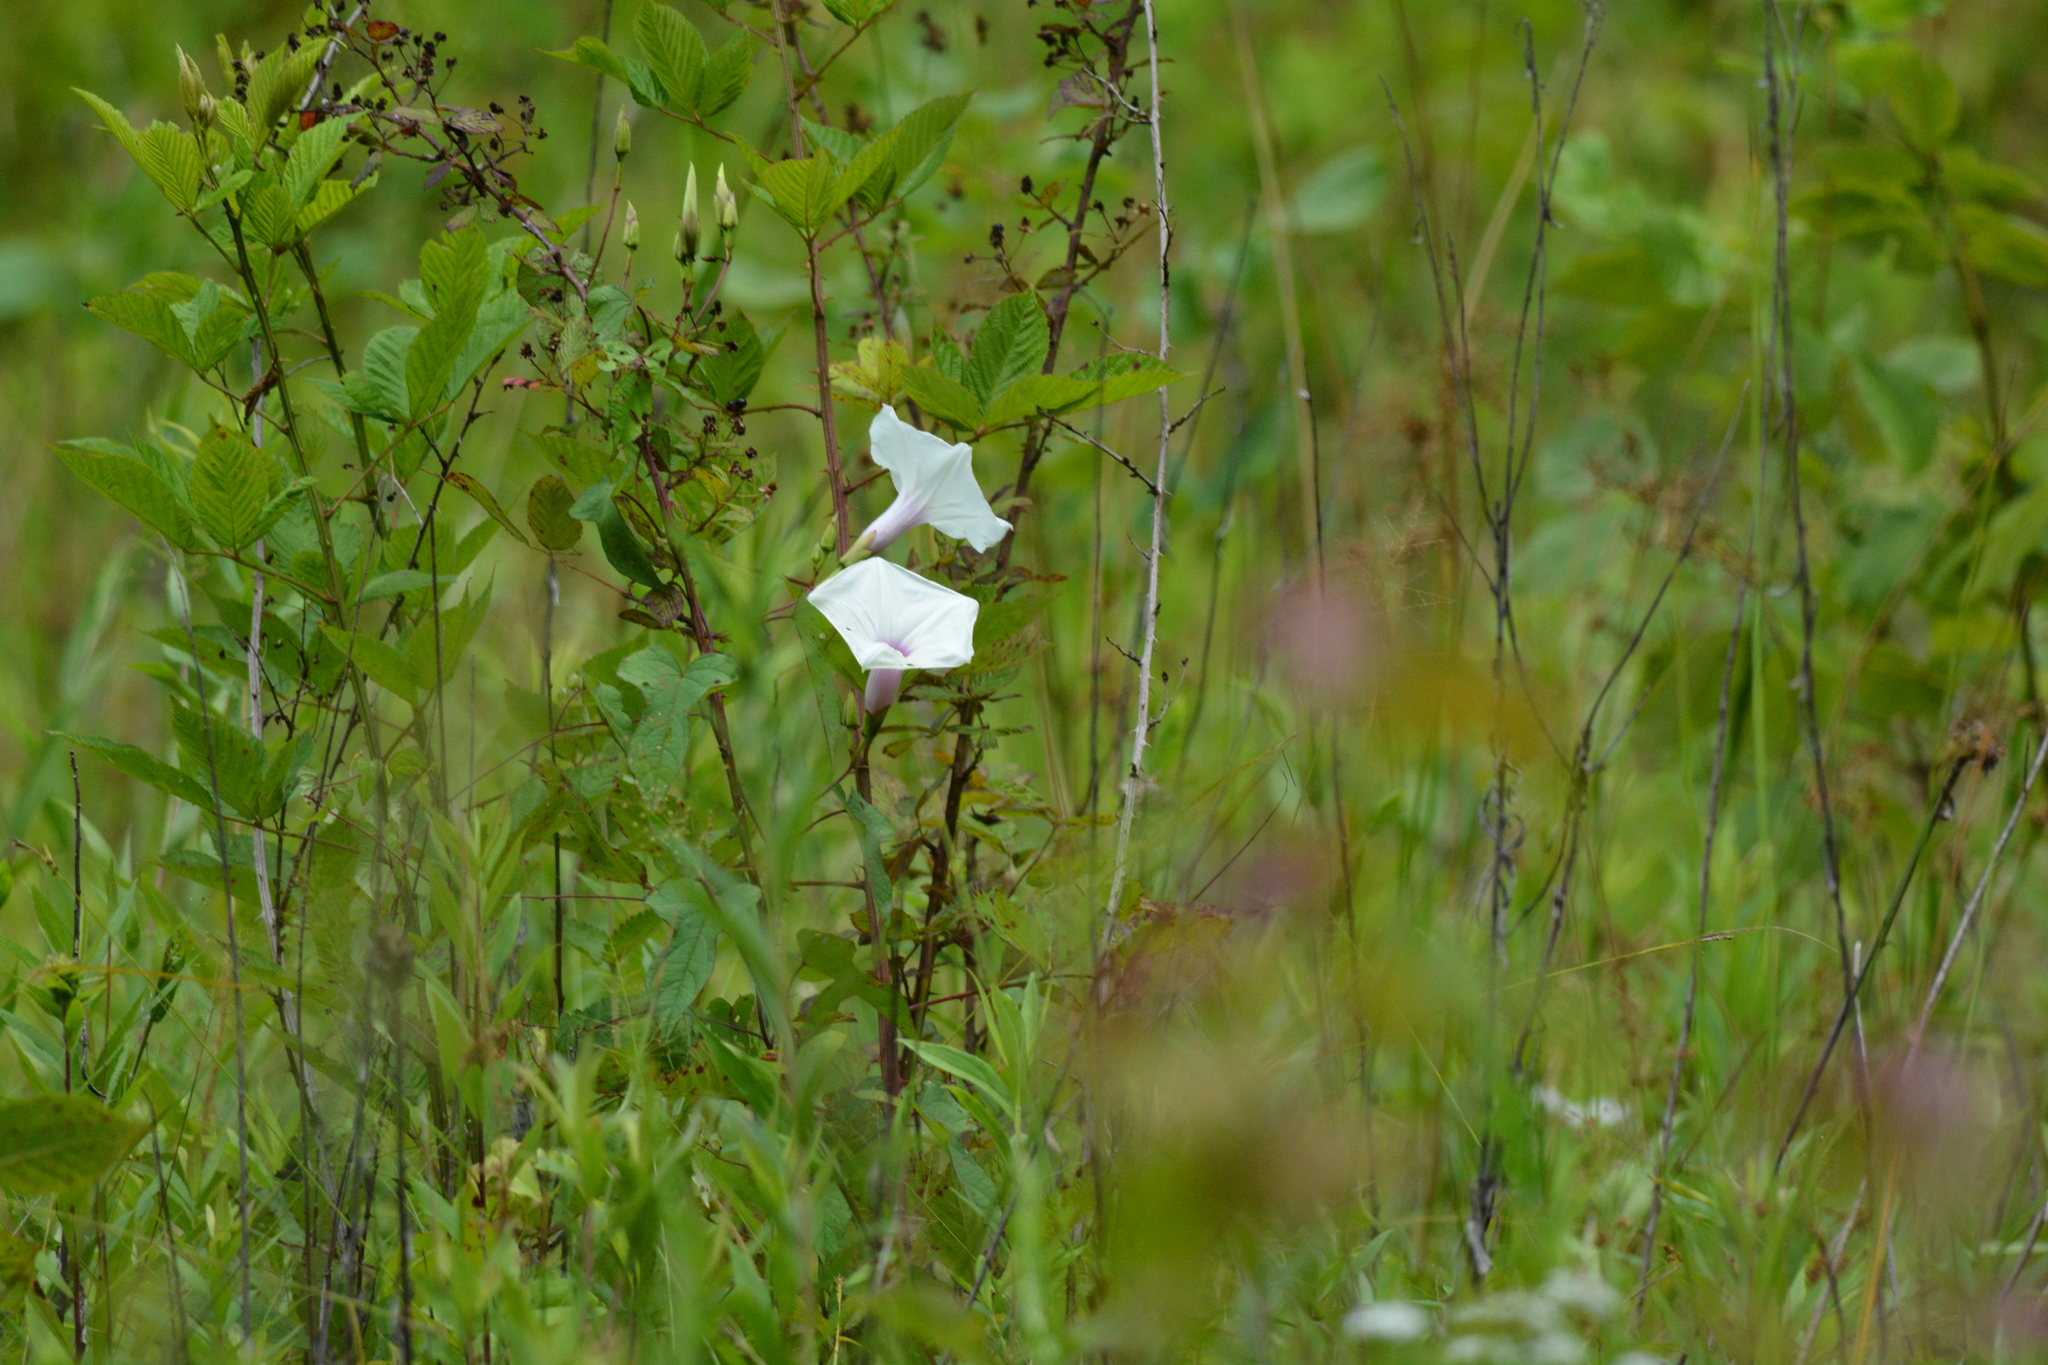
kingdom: Plantae
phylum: Tracheophyta
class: Magnoliopsida
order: Solanales
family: Convolvulaceae
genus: Ipomoea
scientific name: Ipomoea pandurata
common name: Man-of-the-earth
